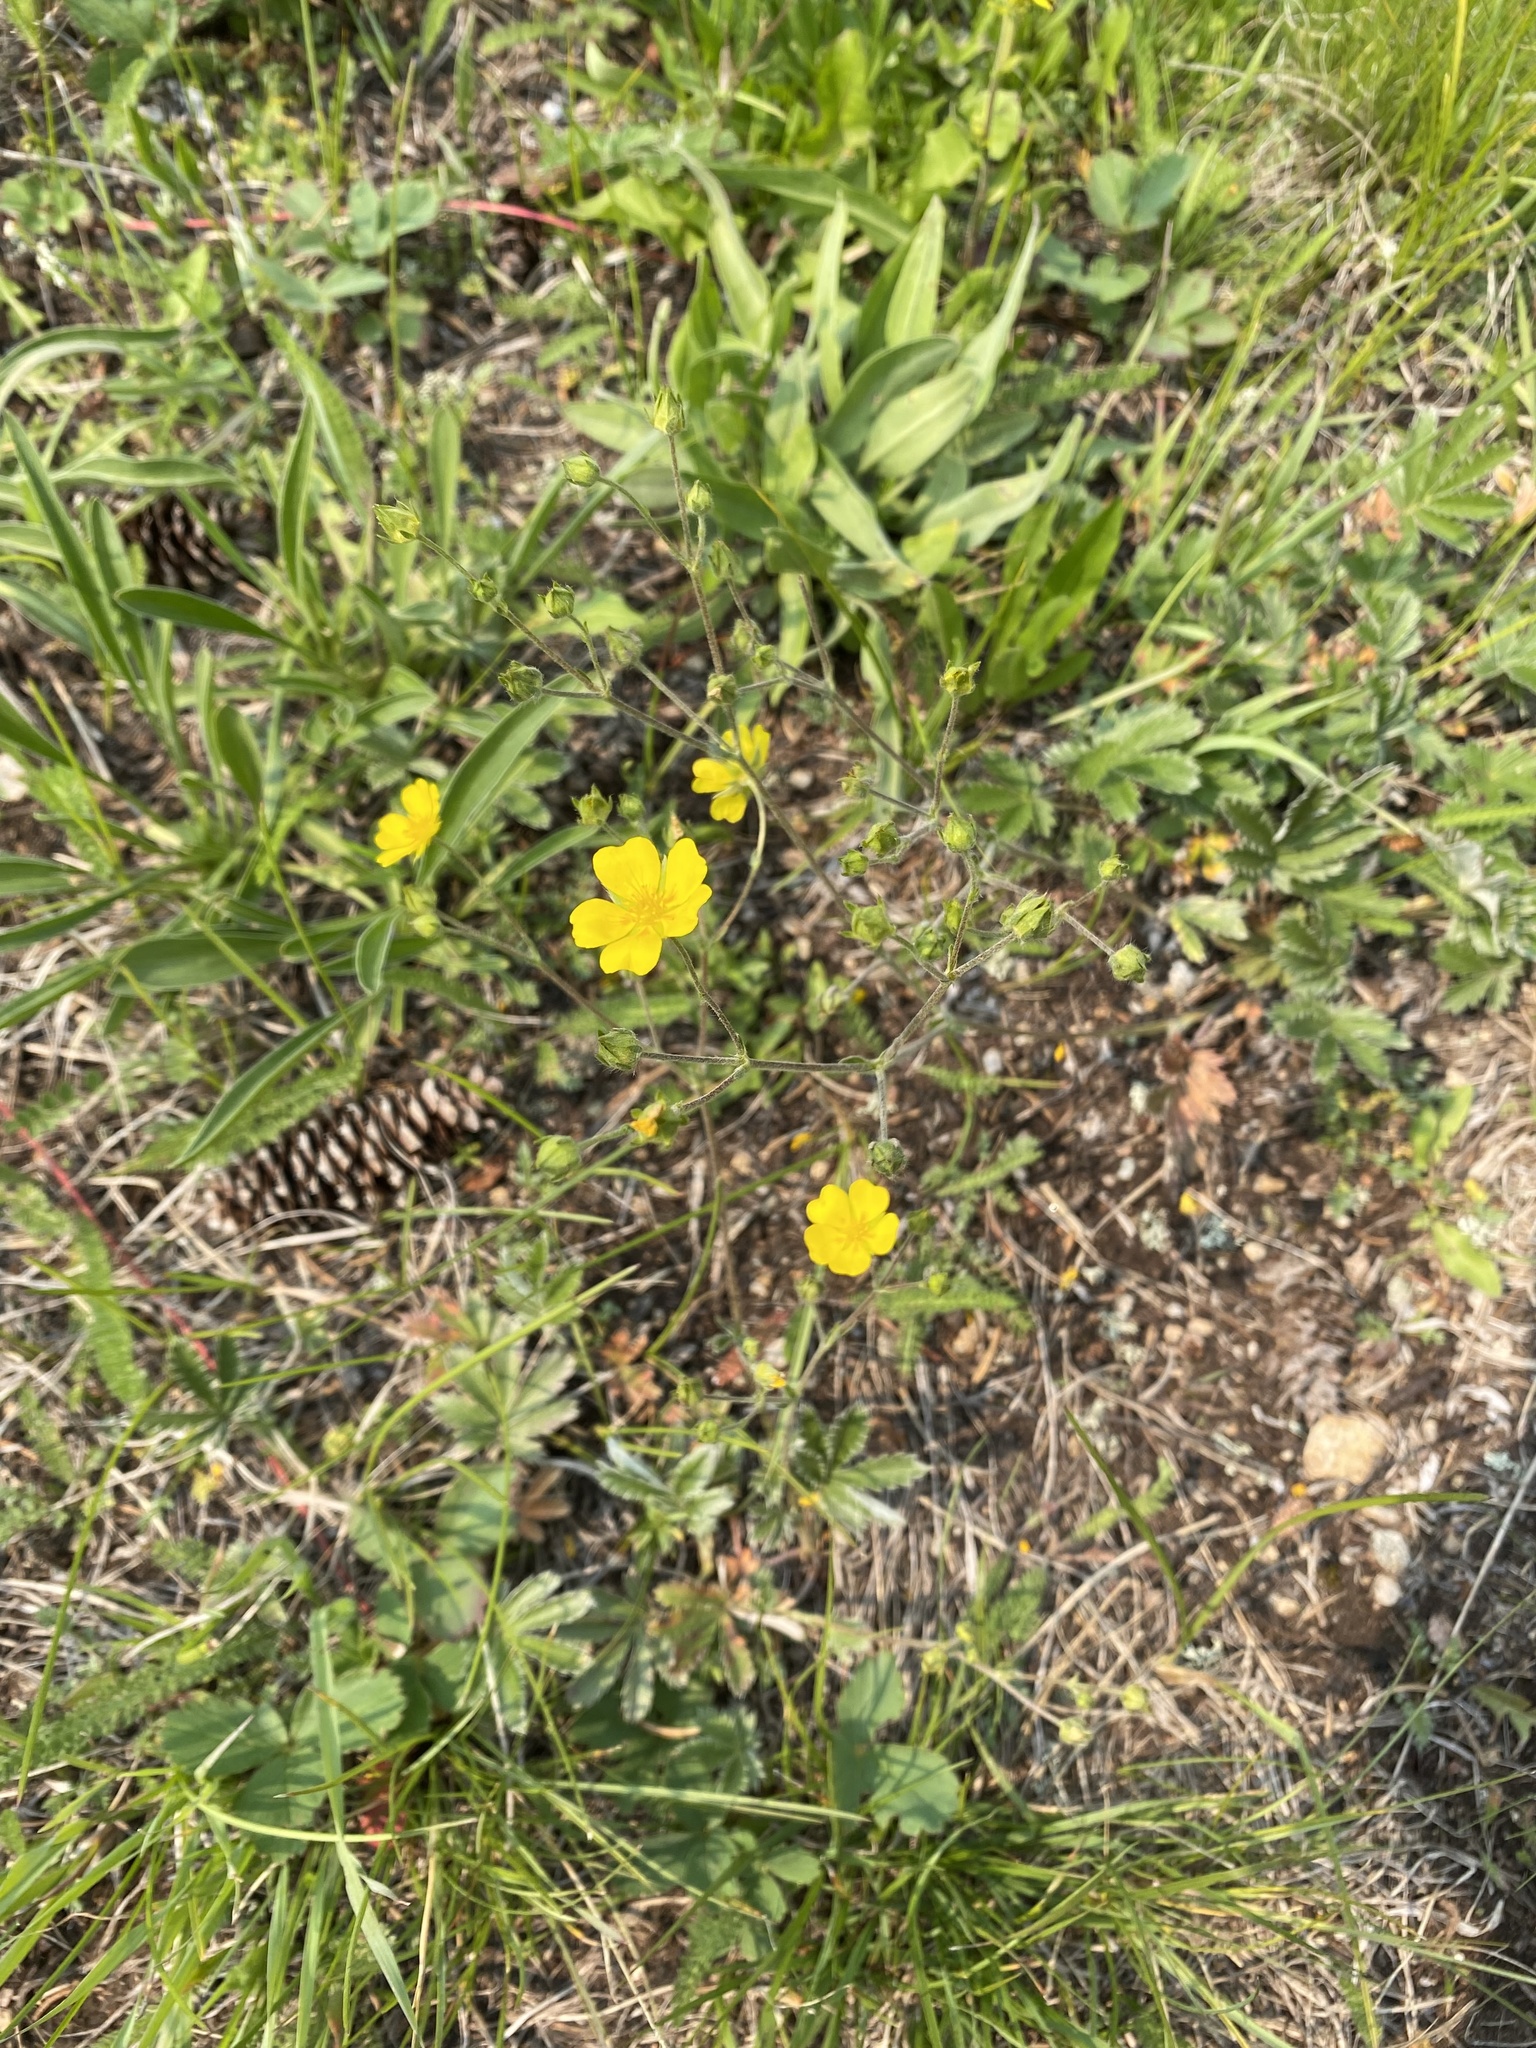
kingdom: Plantae
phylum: Tracheophyta
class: Magnoliopsida
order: Rosales
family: Rosaceae
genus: Potentilla
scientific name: Potentilla pulcherrima
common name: Beautiful cinquefoil
